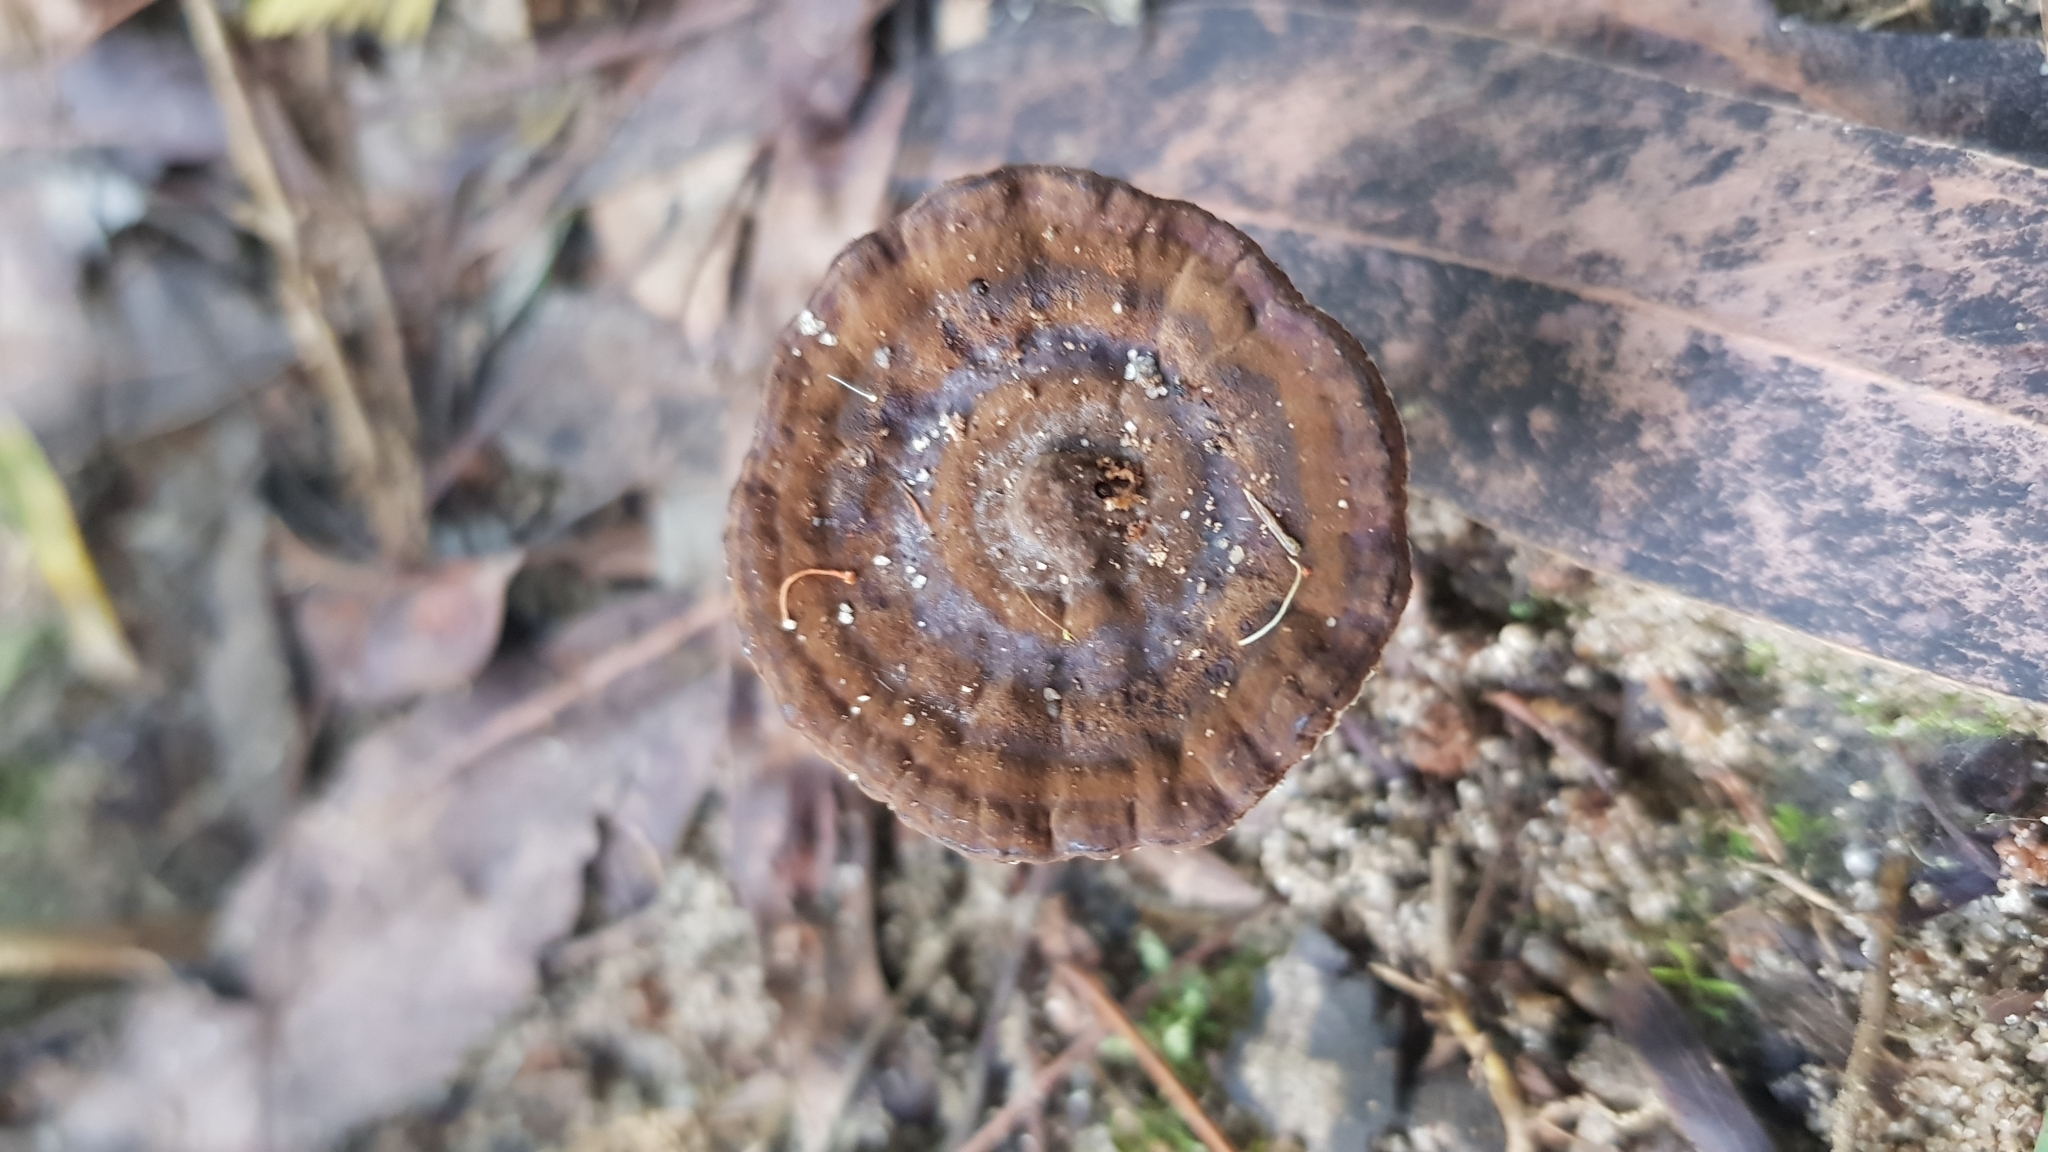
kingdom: Fungi
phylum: Basidiomycota
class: Agaricomycetes
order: Polyporales
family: Ganodermataceae
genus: Sanguinoderma
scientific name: Sanguinoderma rude
